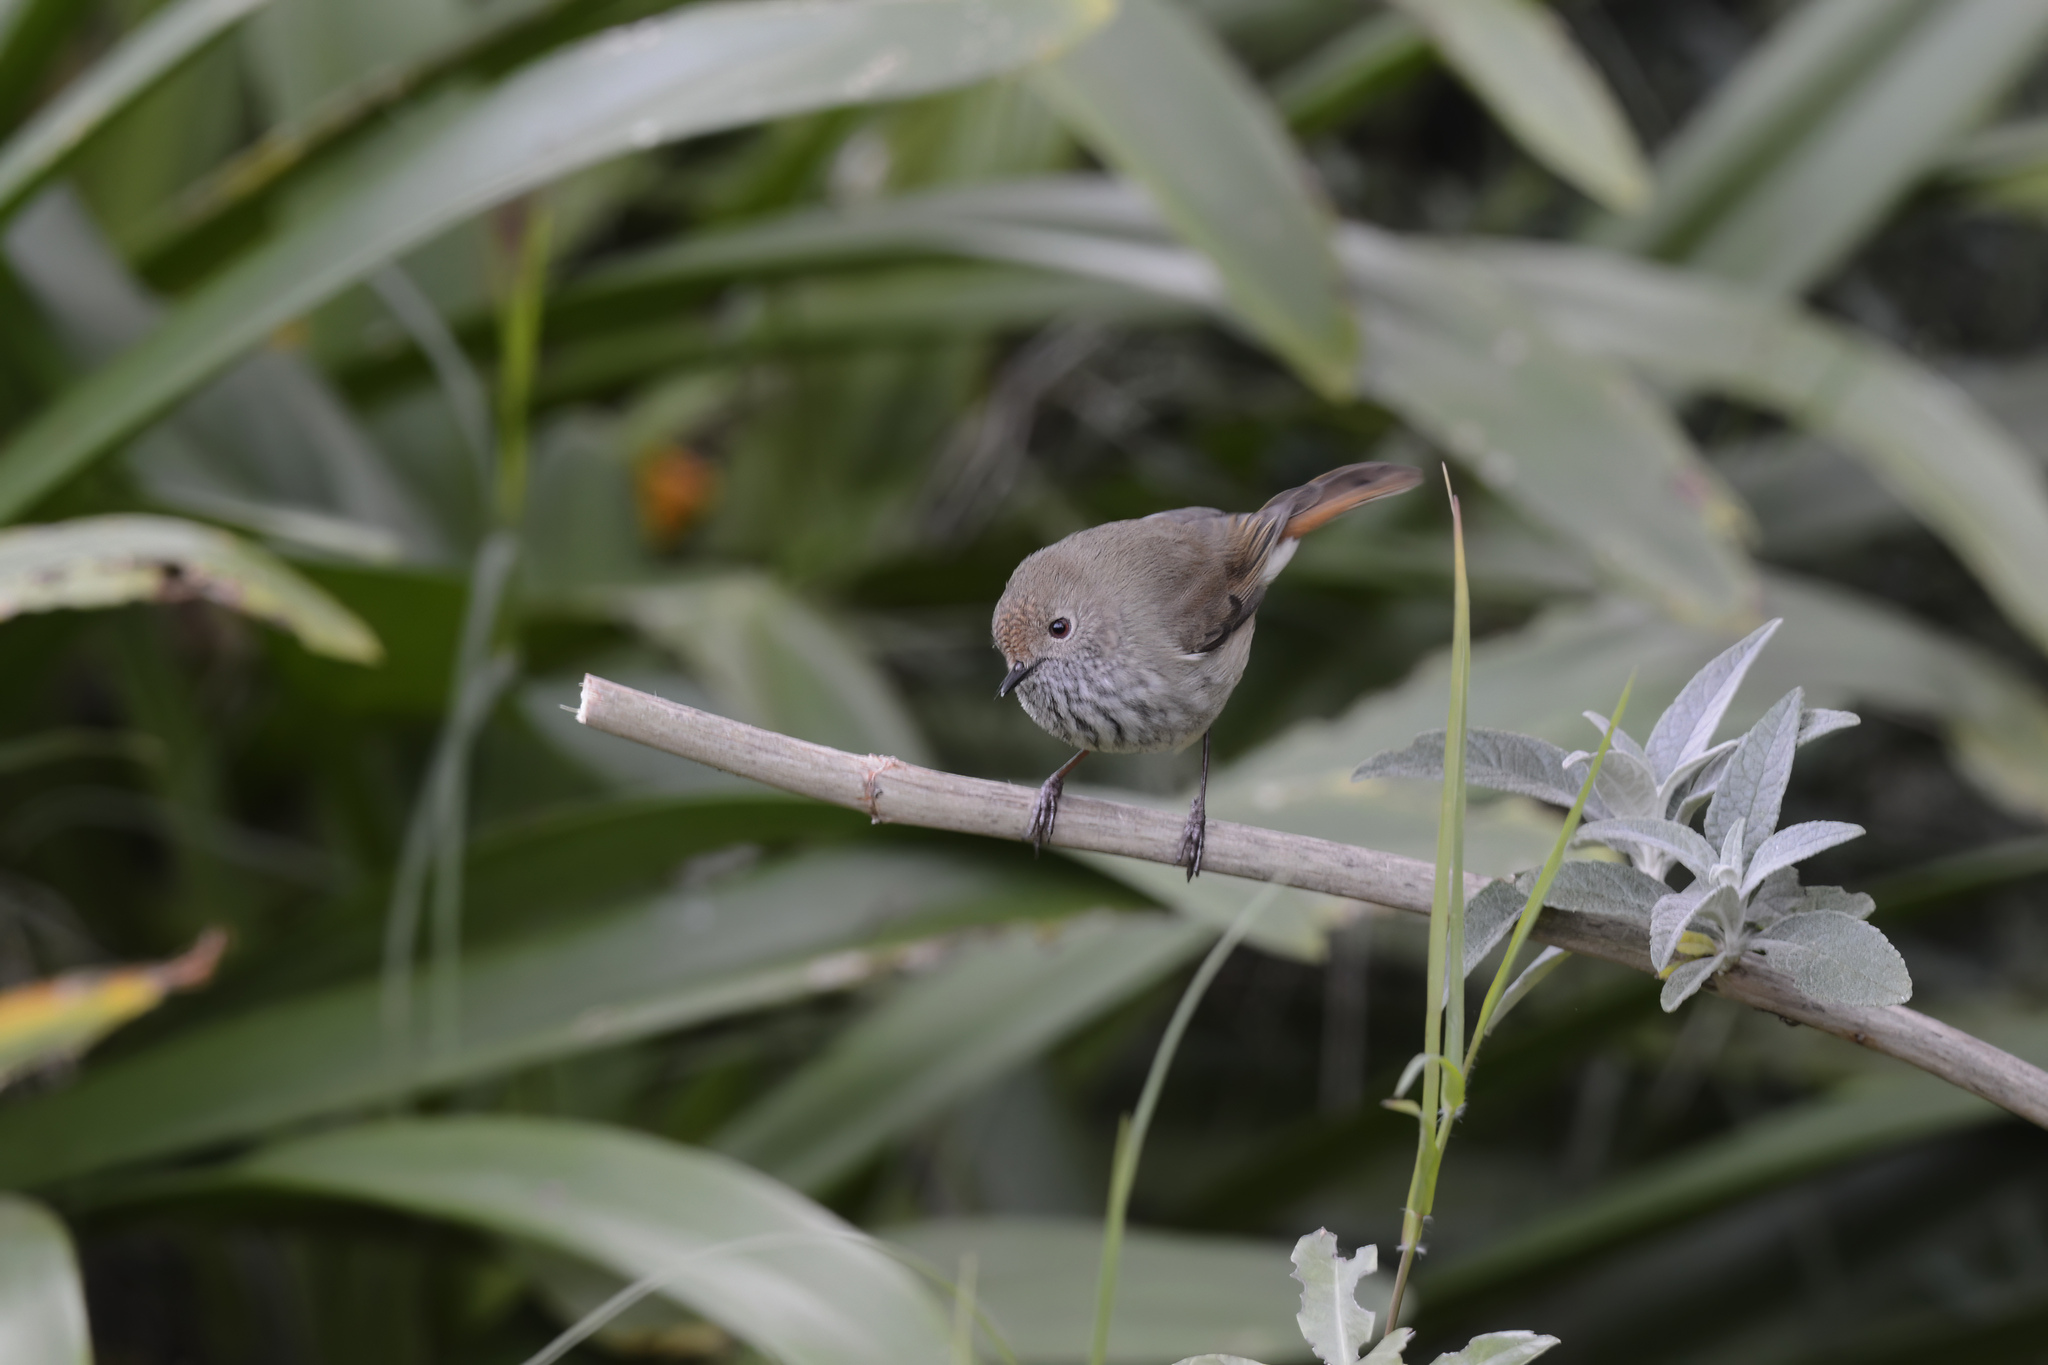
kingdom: Animalia
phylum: Chordata
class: Aves
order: Passeriformes
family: Acanthizidae
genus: Acanthiza
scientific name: Acanthiza pusilla
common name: Brown thornbill
